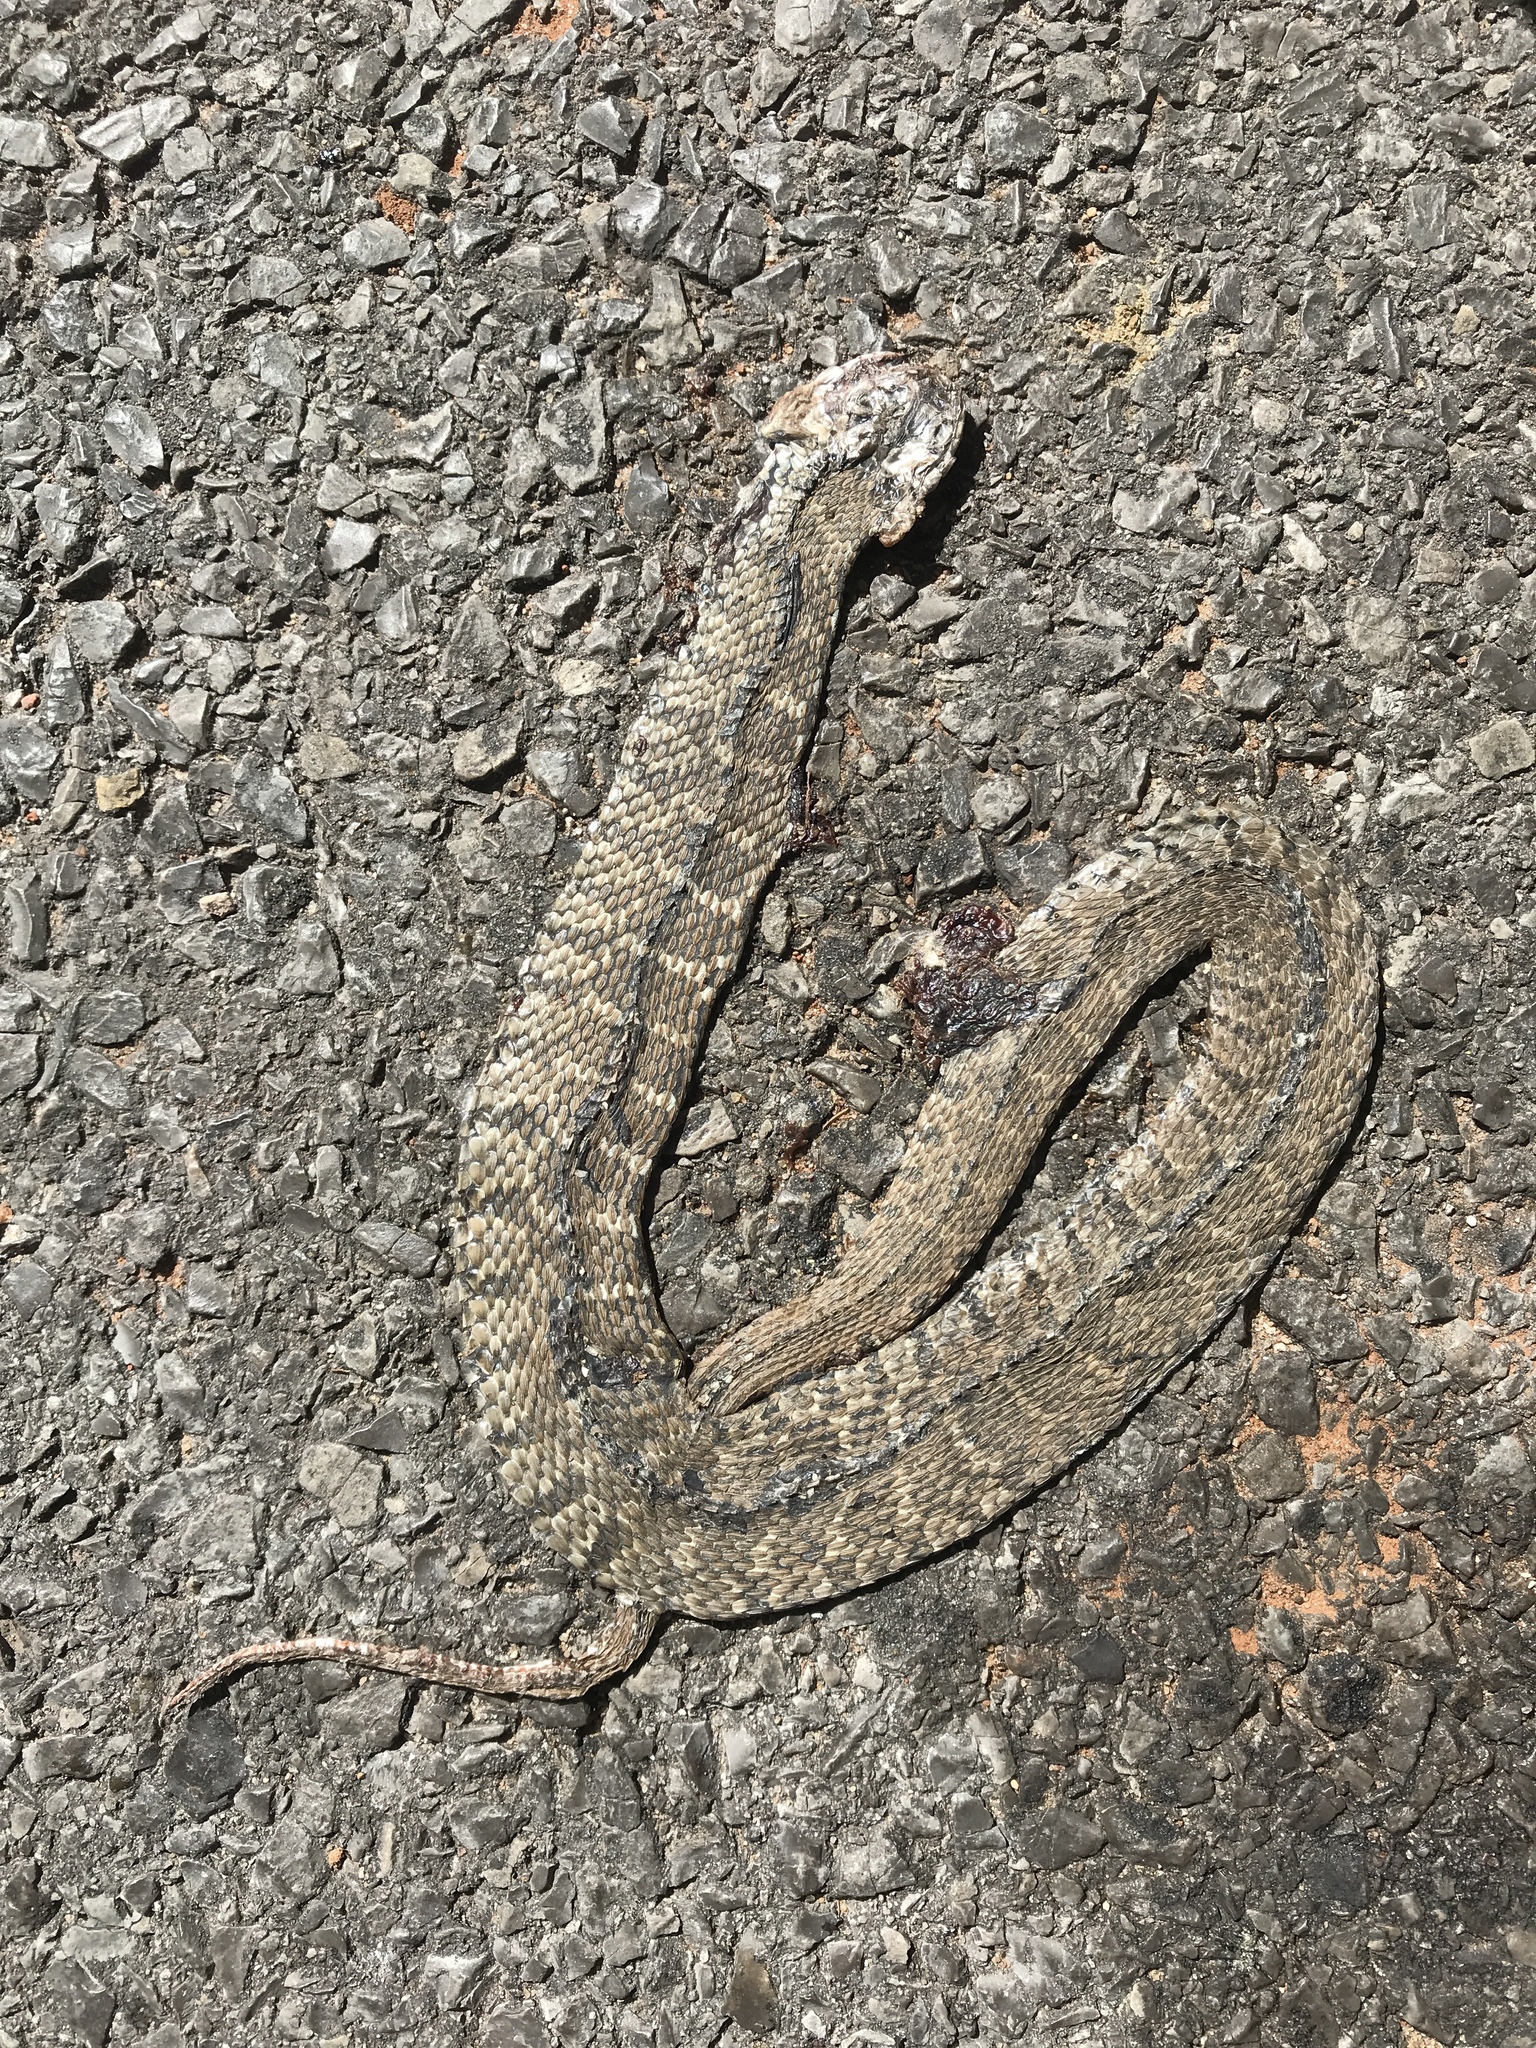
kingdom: Animalia
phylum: Chordata
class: Squamata
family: Colubridae
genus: Nerodia
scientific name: Nerodia erythrogaster
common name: Plainbelly water snake
